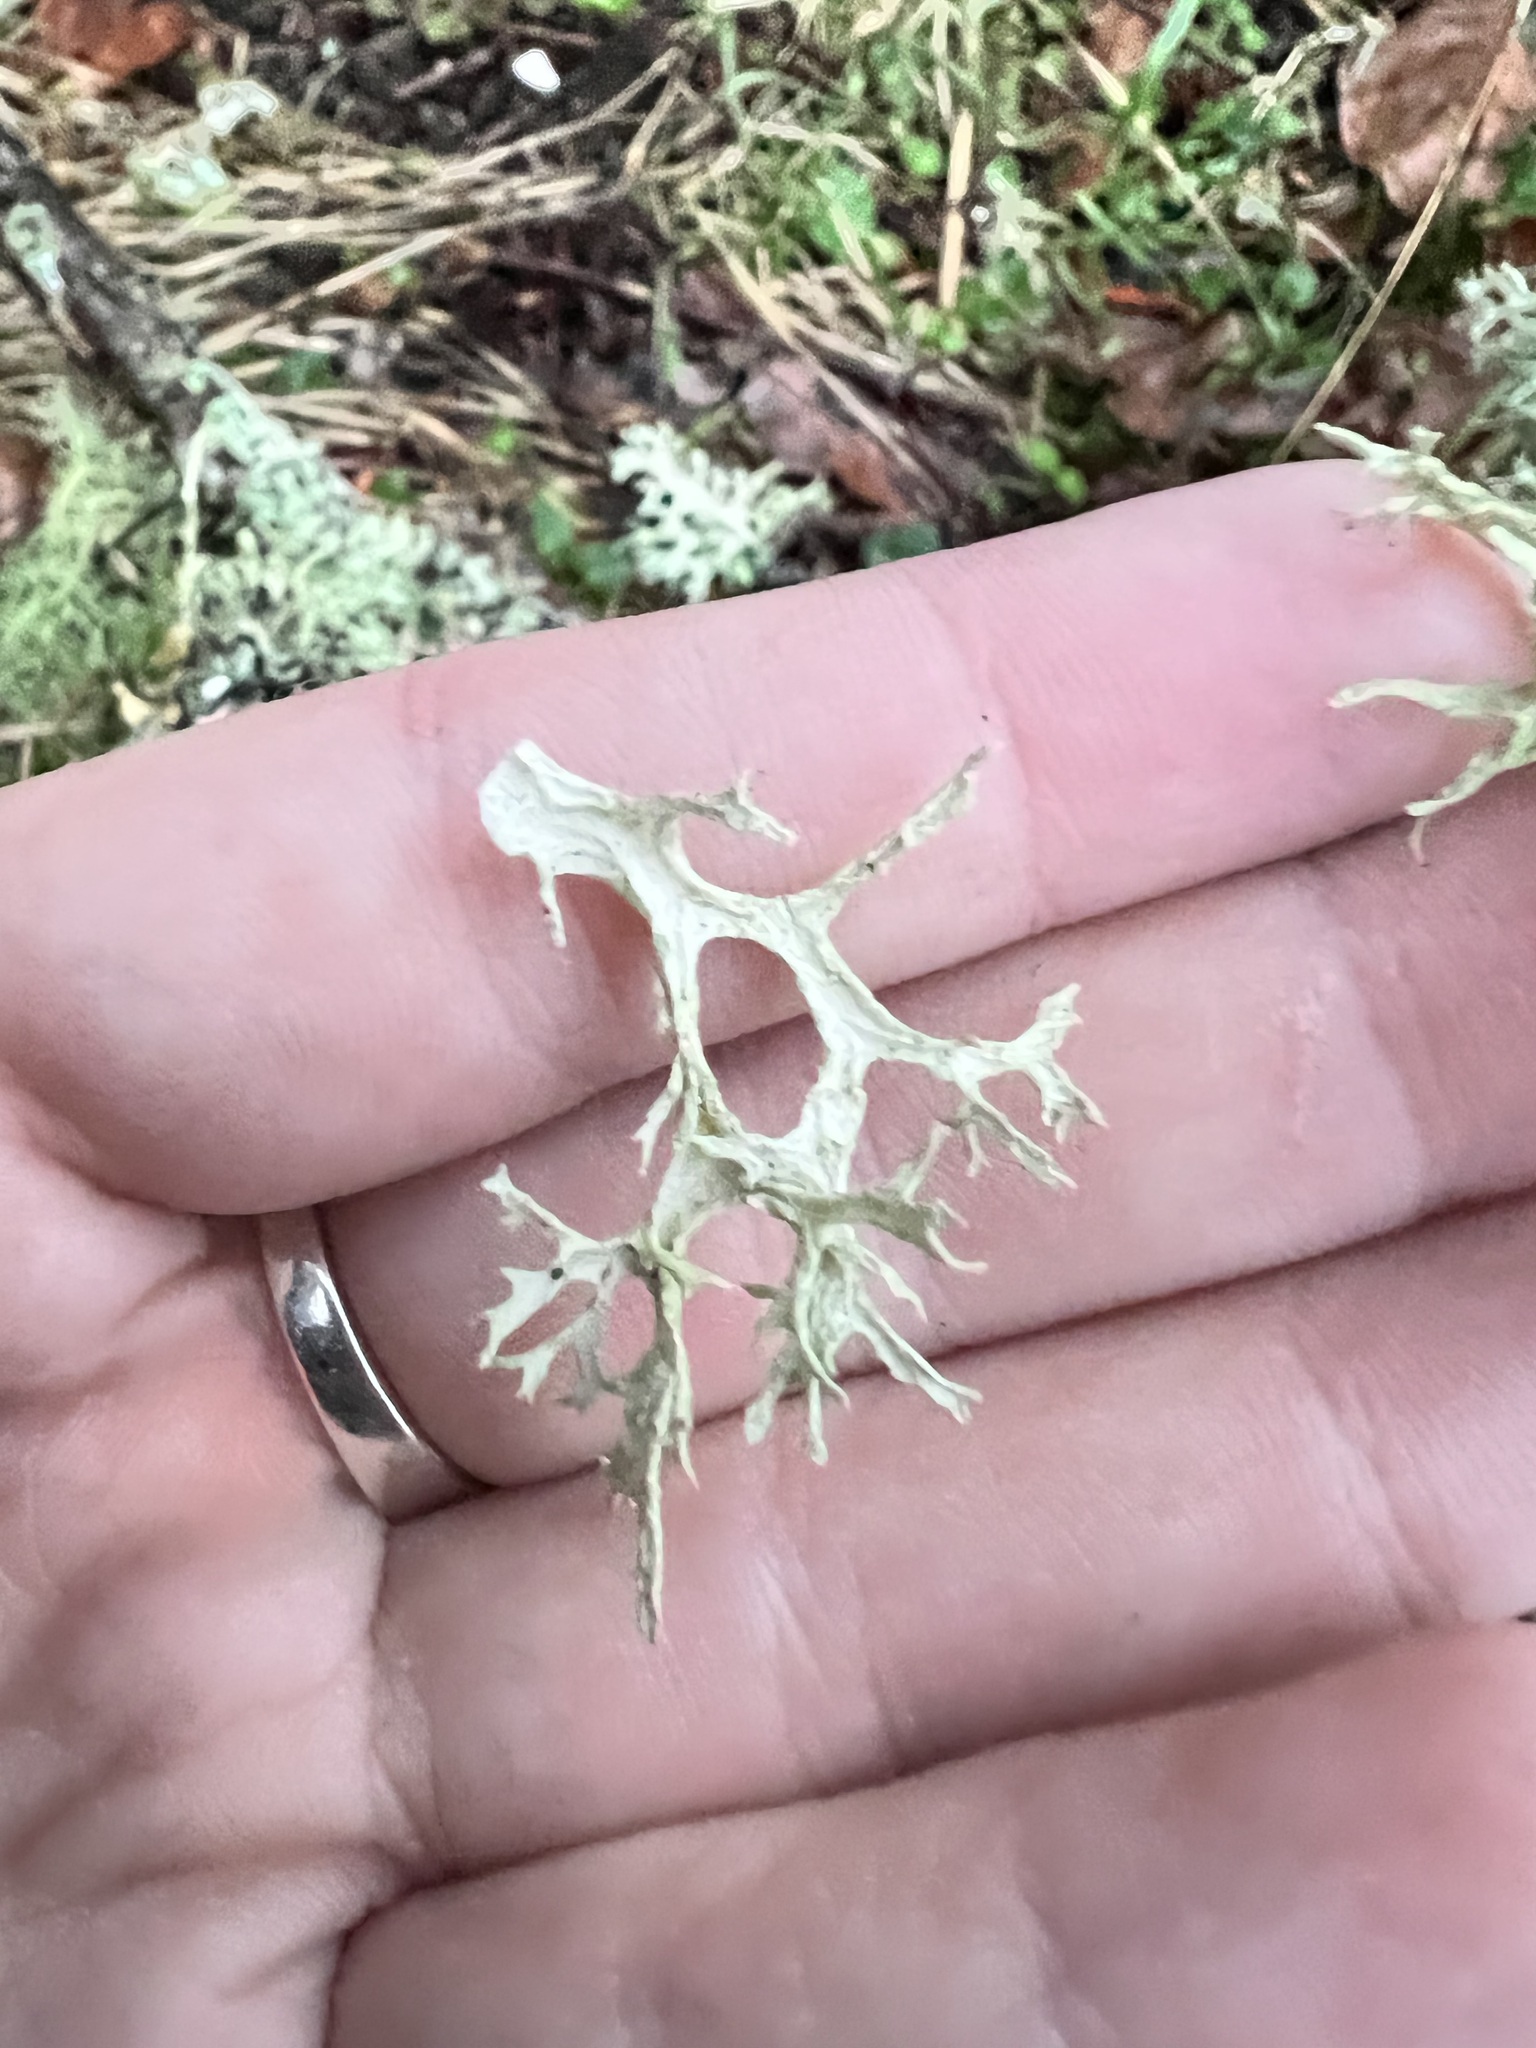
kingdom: Fungi
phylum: Ascomycota
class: Lecanoromycetes
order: Lecanorales
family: Parmeliaceae
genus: Evernia
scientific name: Evernia prunastri
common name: Oak moss
